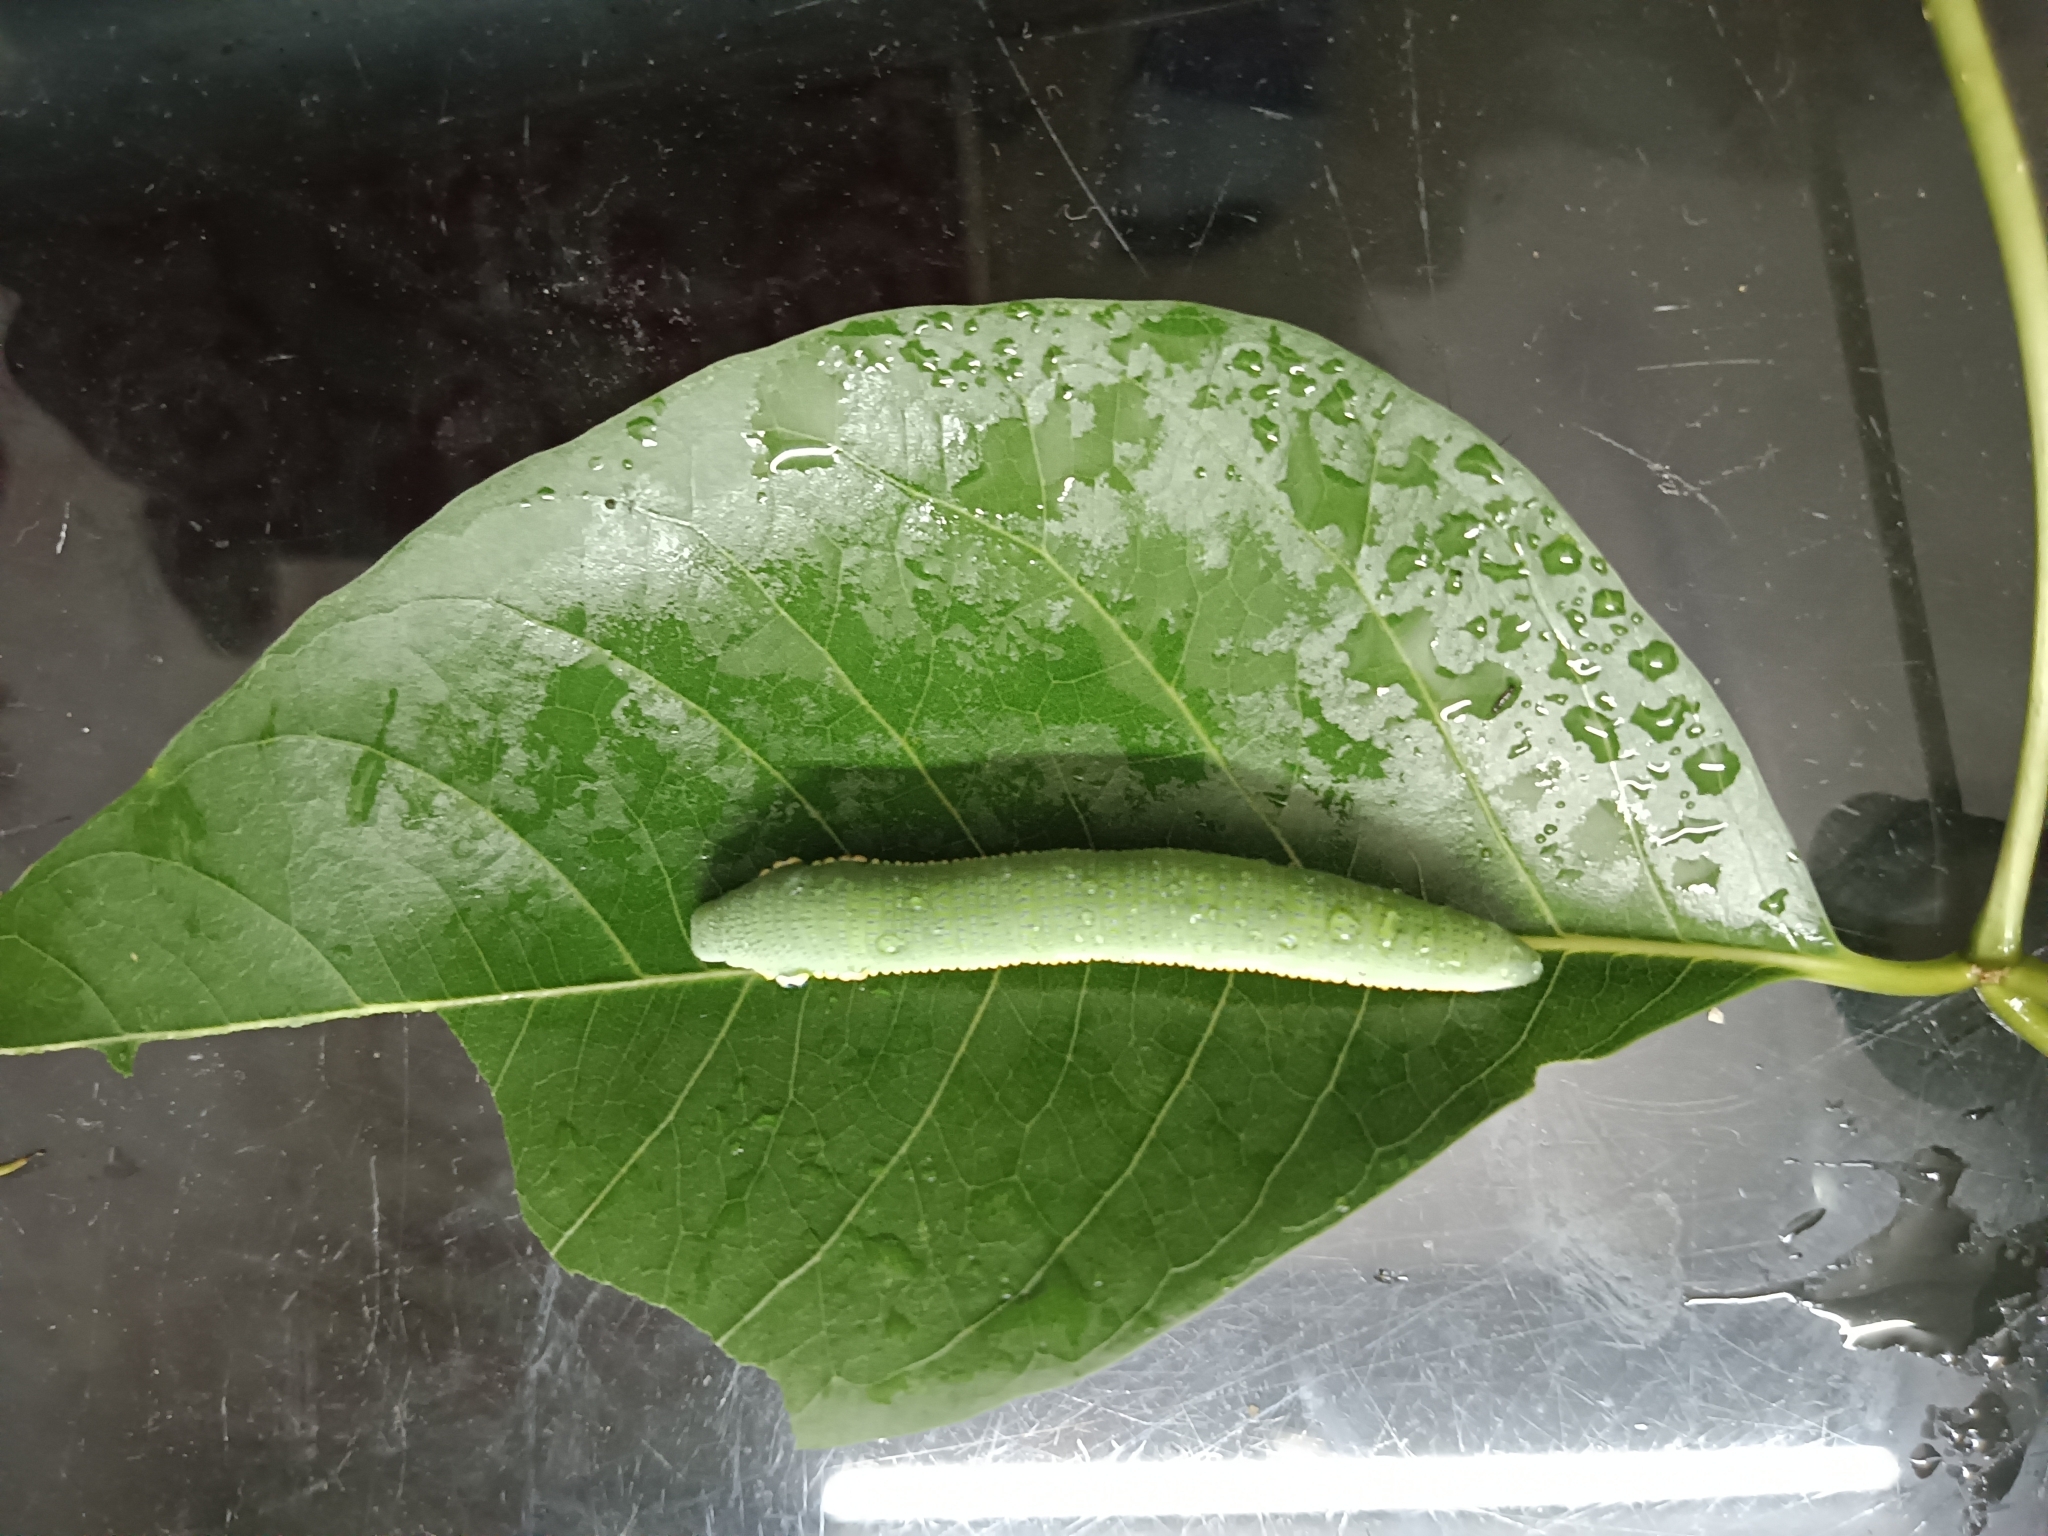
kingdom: Animalia
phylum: Arthropoda
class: Insecta
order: Lepidoptera
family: Pieridae
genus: Hebomoia
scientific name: Hebomoia glaucippe
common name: Great orange tip
